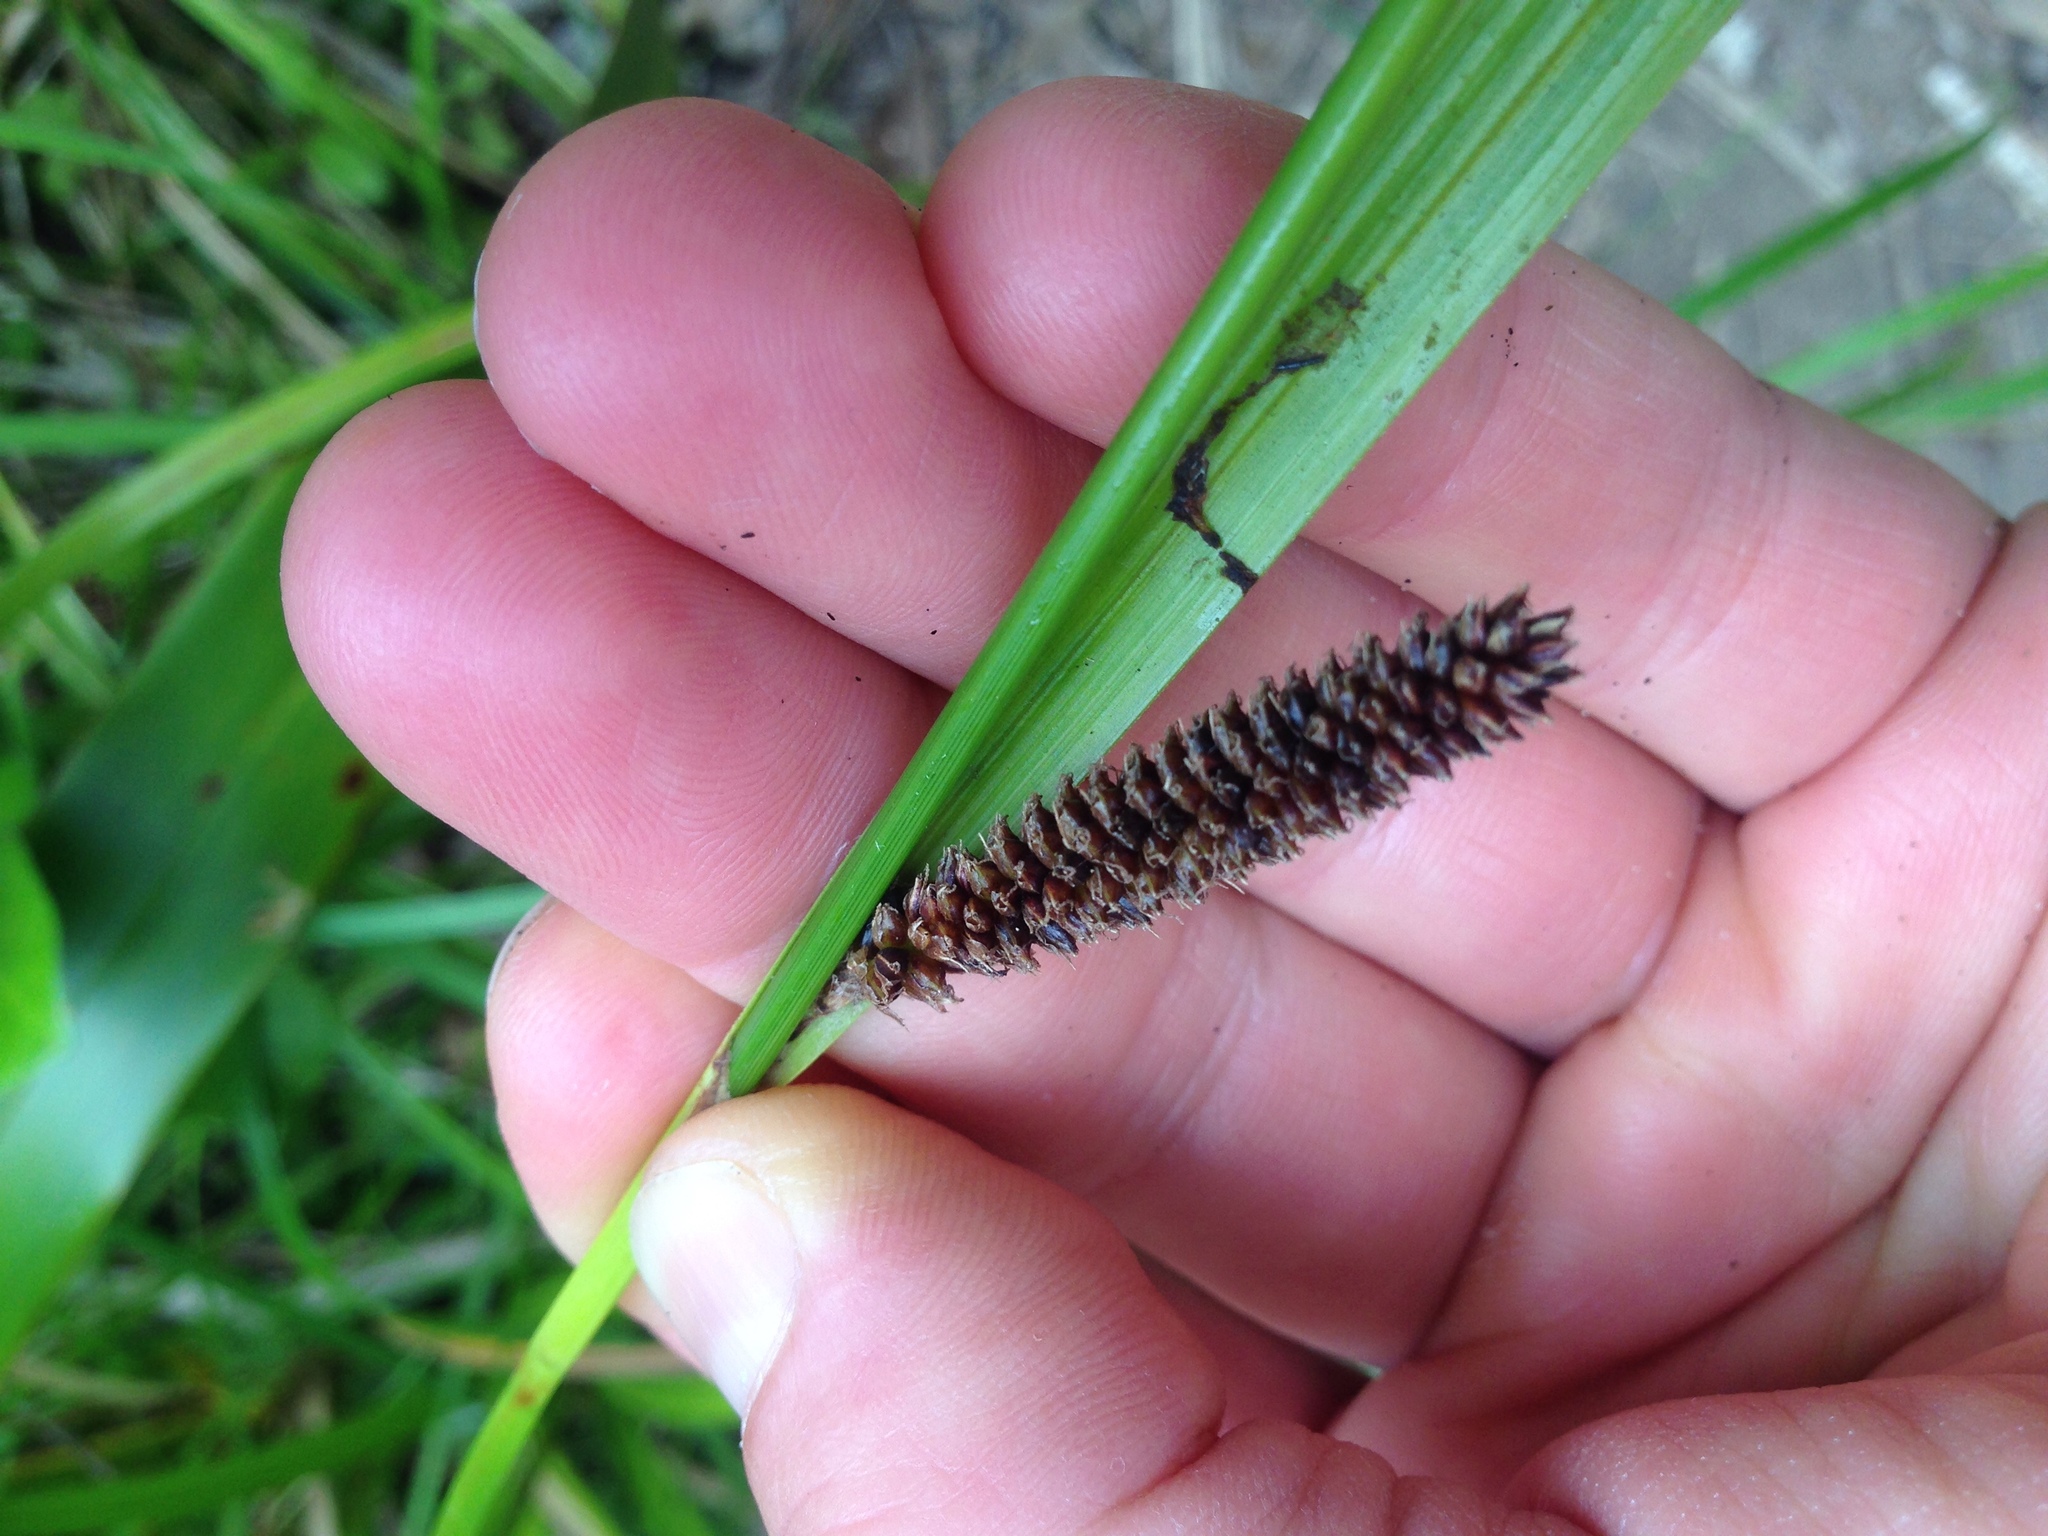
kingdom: Plantae
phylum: Tracheophyta
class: Liliopsida
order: Poales
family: Cyperaceae
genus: Carex
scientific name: Carex lambertiana
